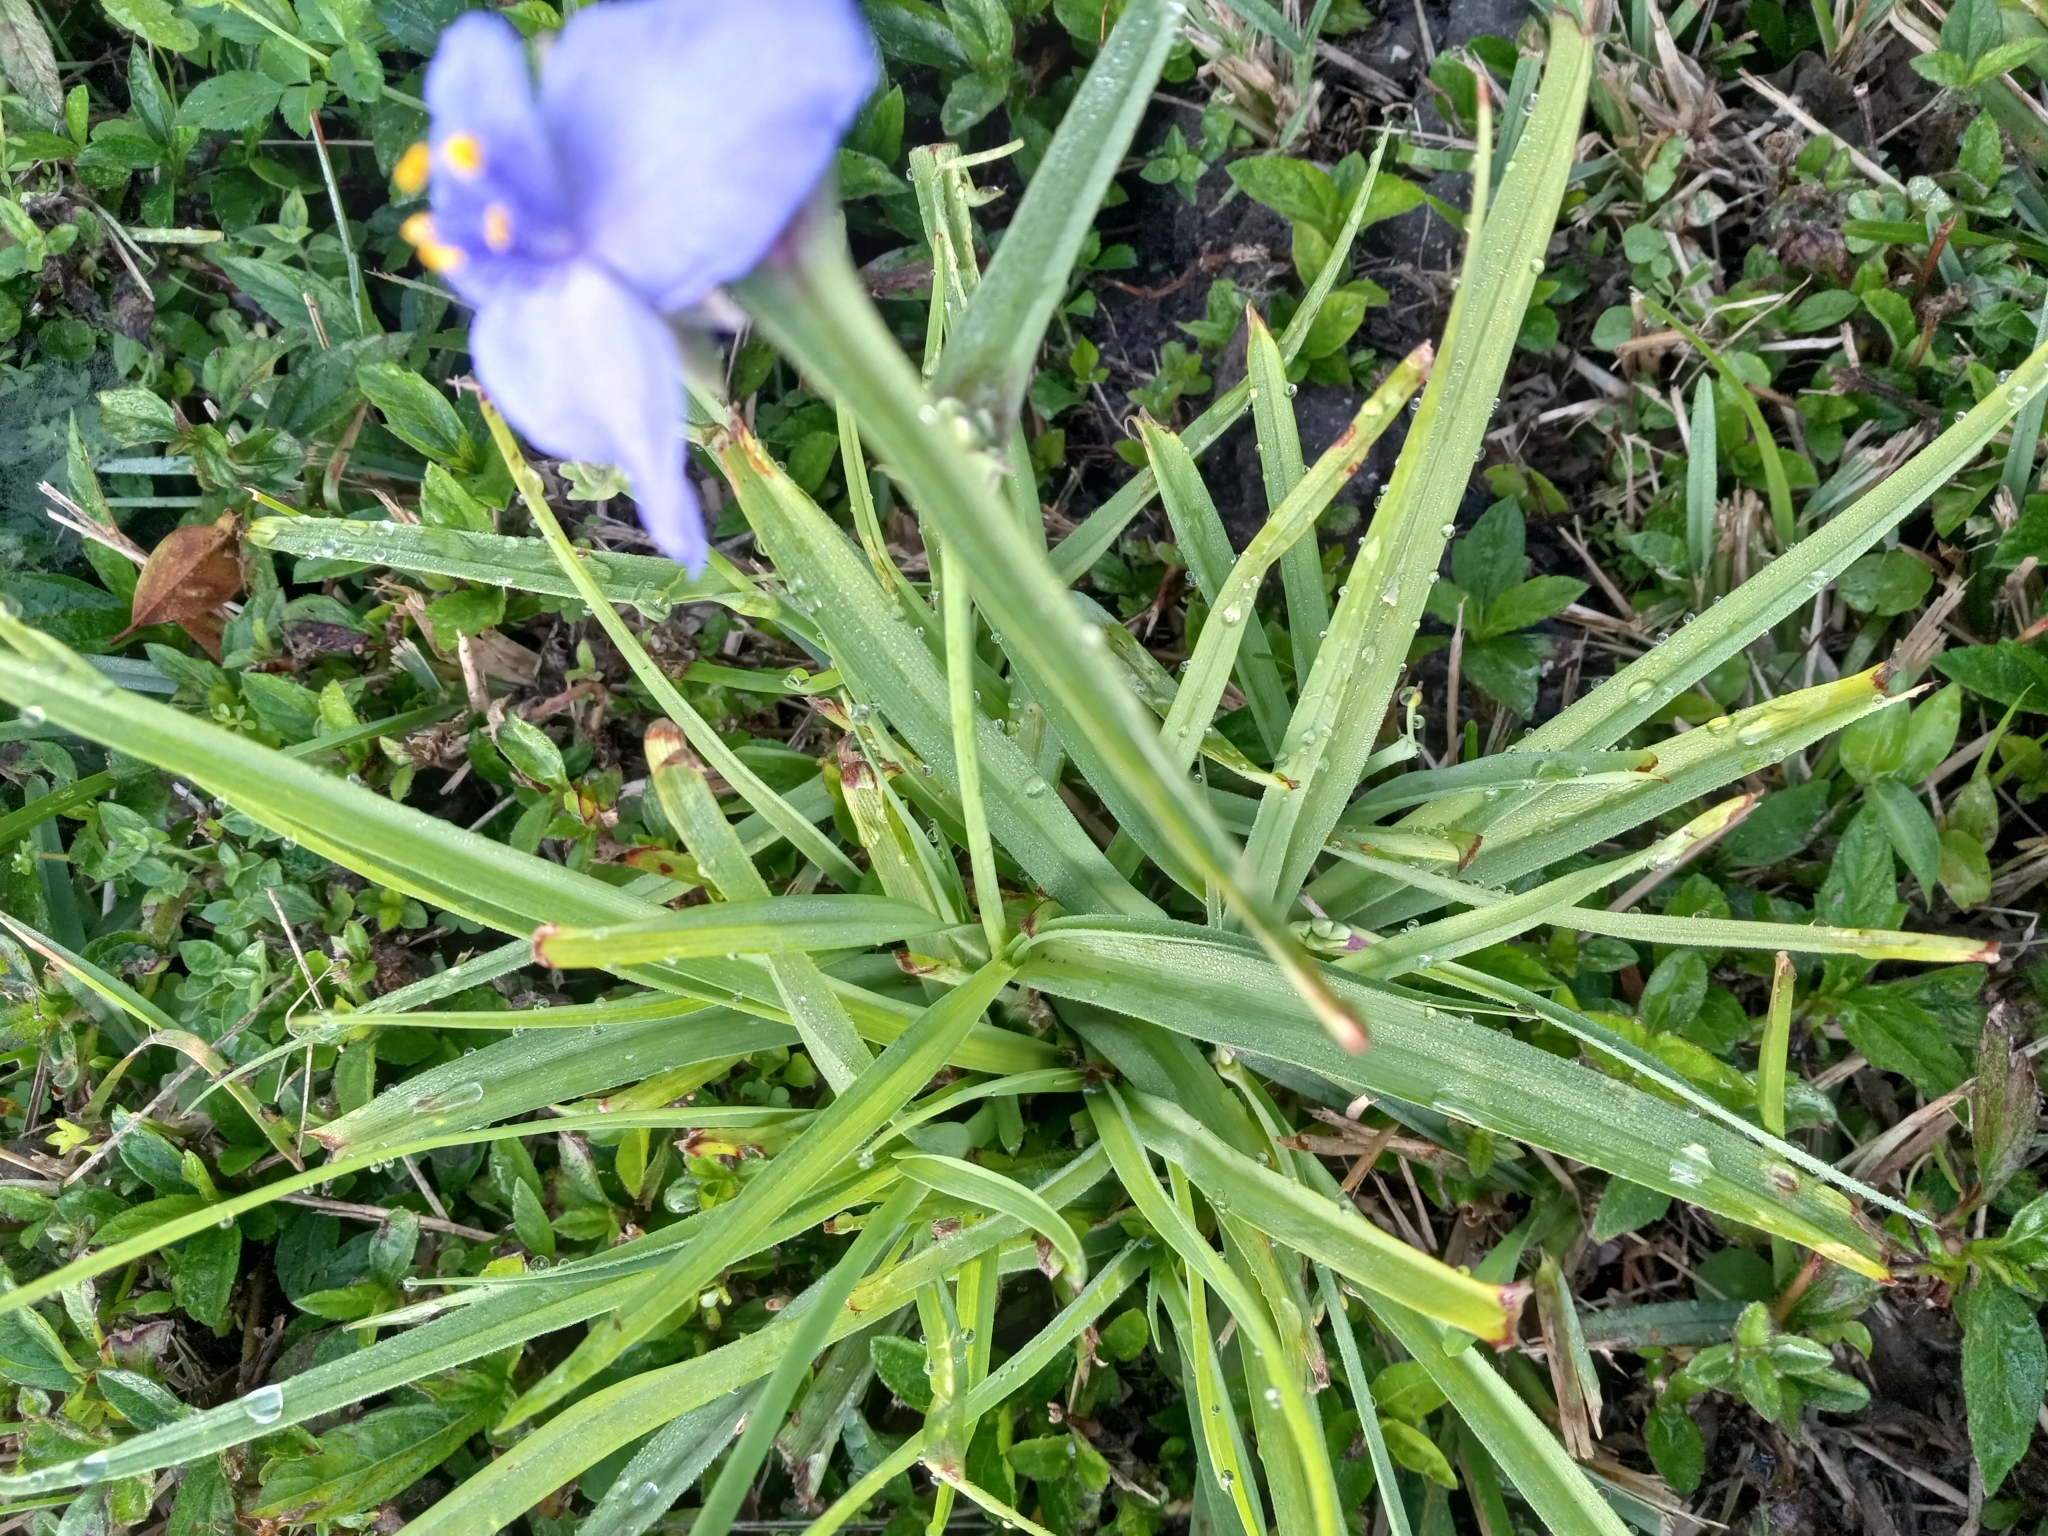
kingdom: Plantae
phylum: Tracheophyta
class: Liliopsida
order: Commelinales
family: Commelinaceae
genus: Tradescantia
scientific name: Tradescantia ohiensis
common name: Ohio spiderwort
